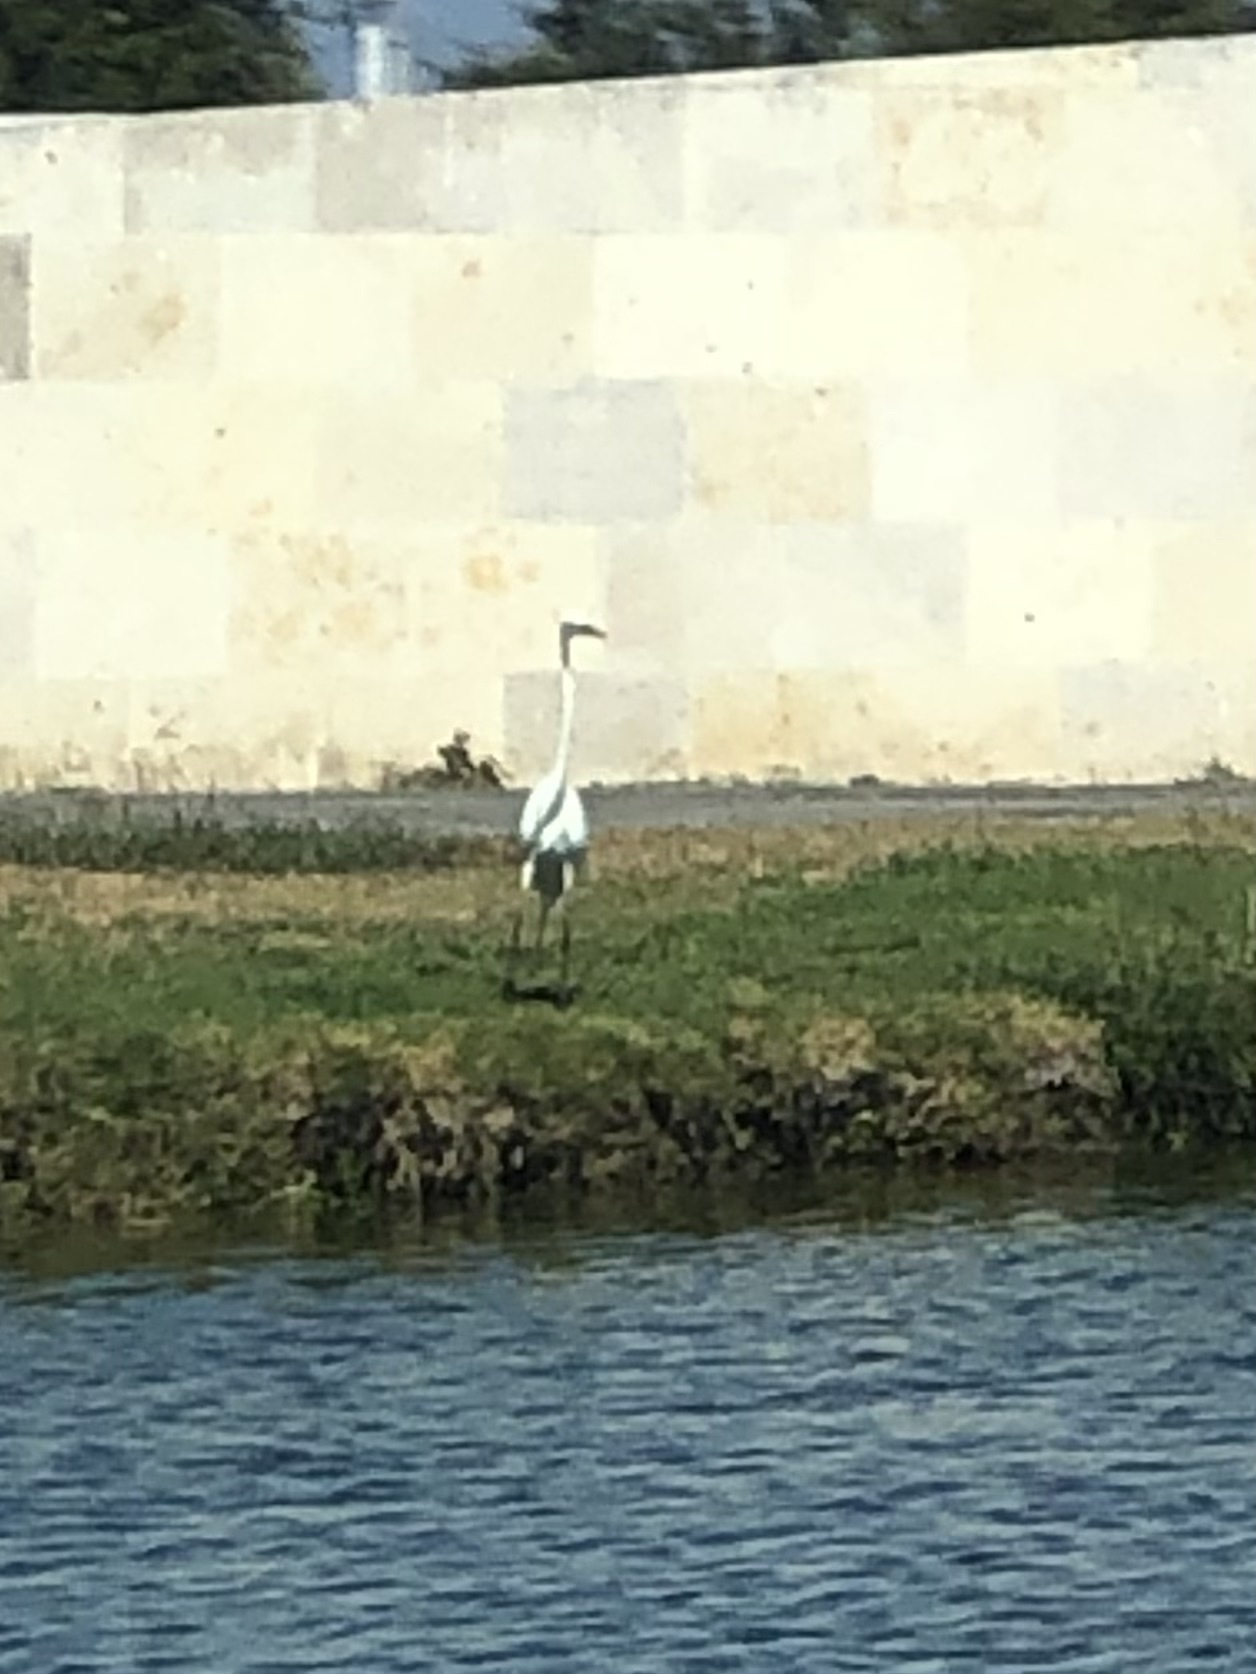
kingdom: Animalia
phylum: Chordata
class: Aves
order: Pelecaniformes
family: Ardeidae
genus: Ardea
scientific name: Ardea alba
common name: Great egret
